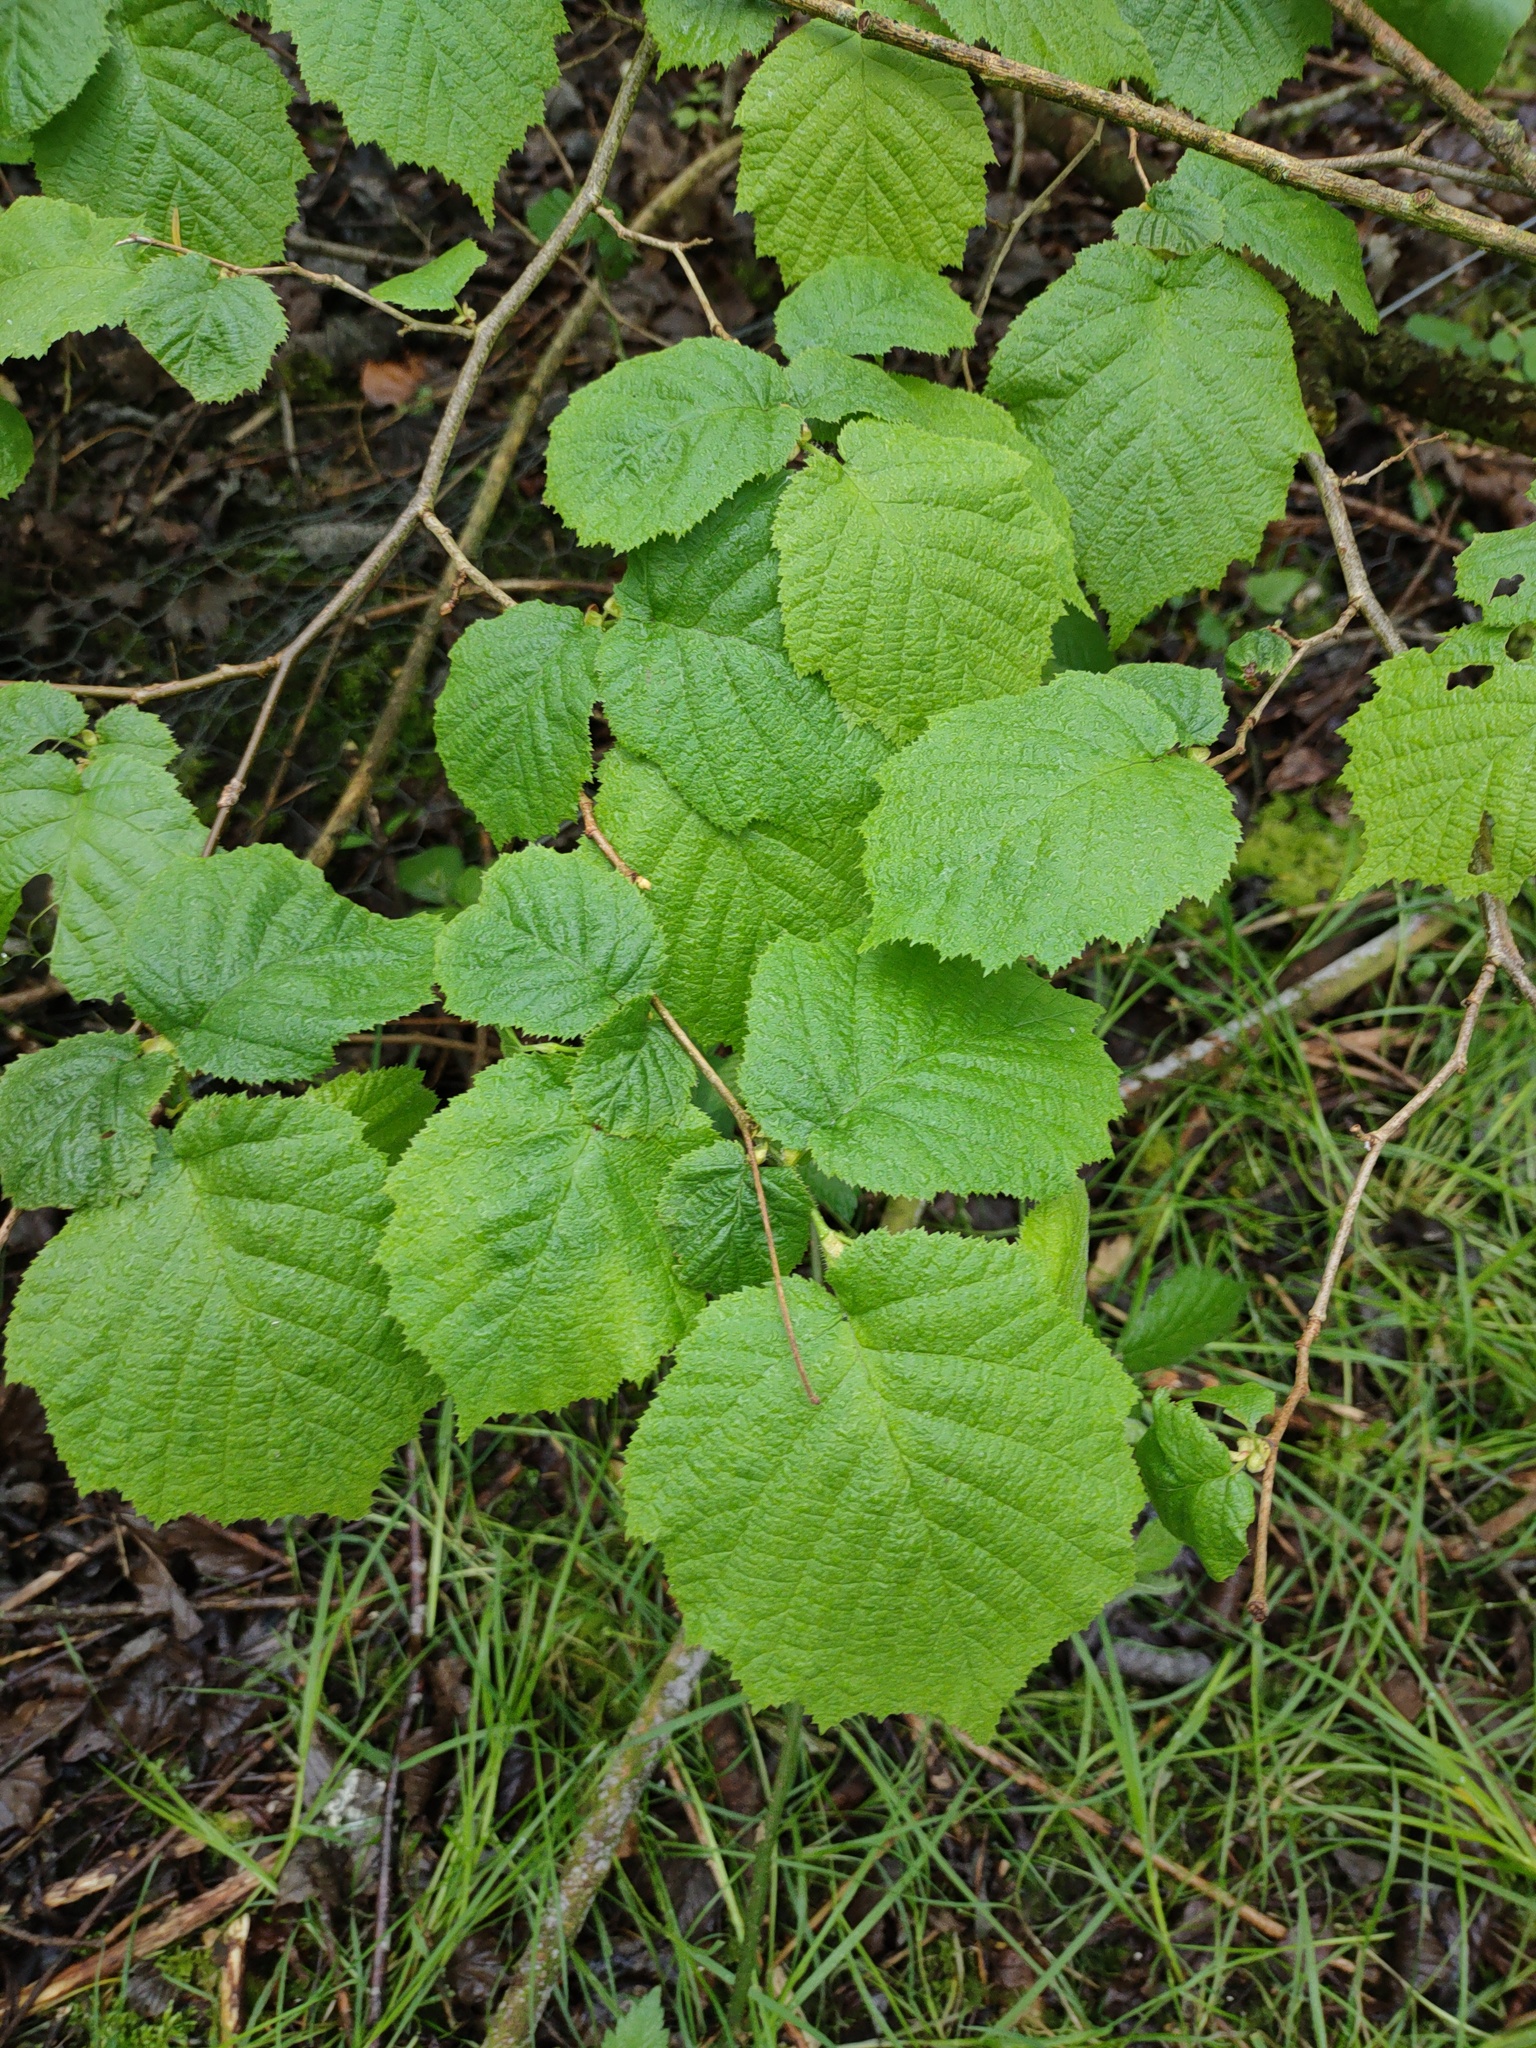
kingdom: Plantae
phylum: Tracheophyta
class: Magnoliopsida
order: Fagales
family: Betulaceae
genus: Corylus
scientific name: Corylus avellana
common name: European hazel
